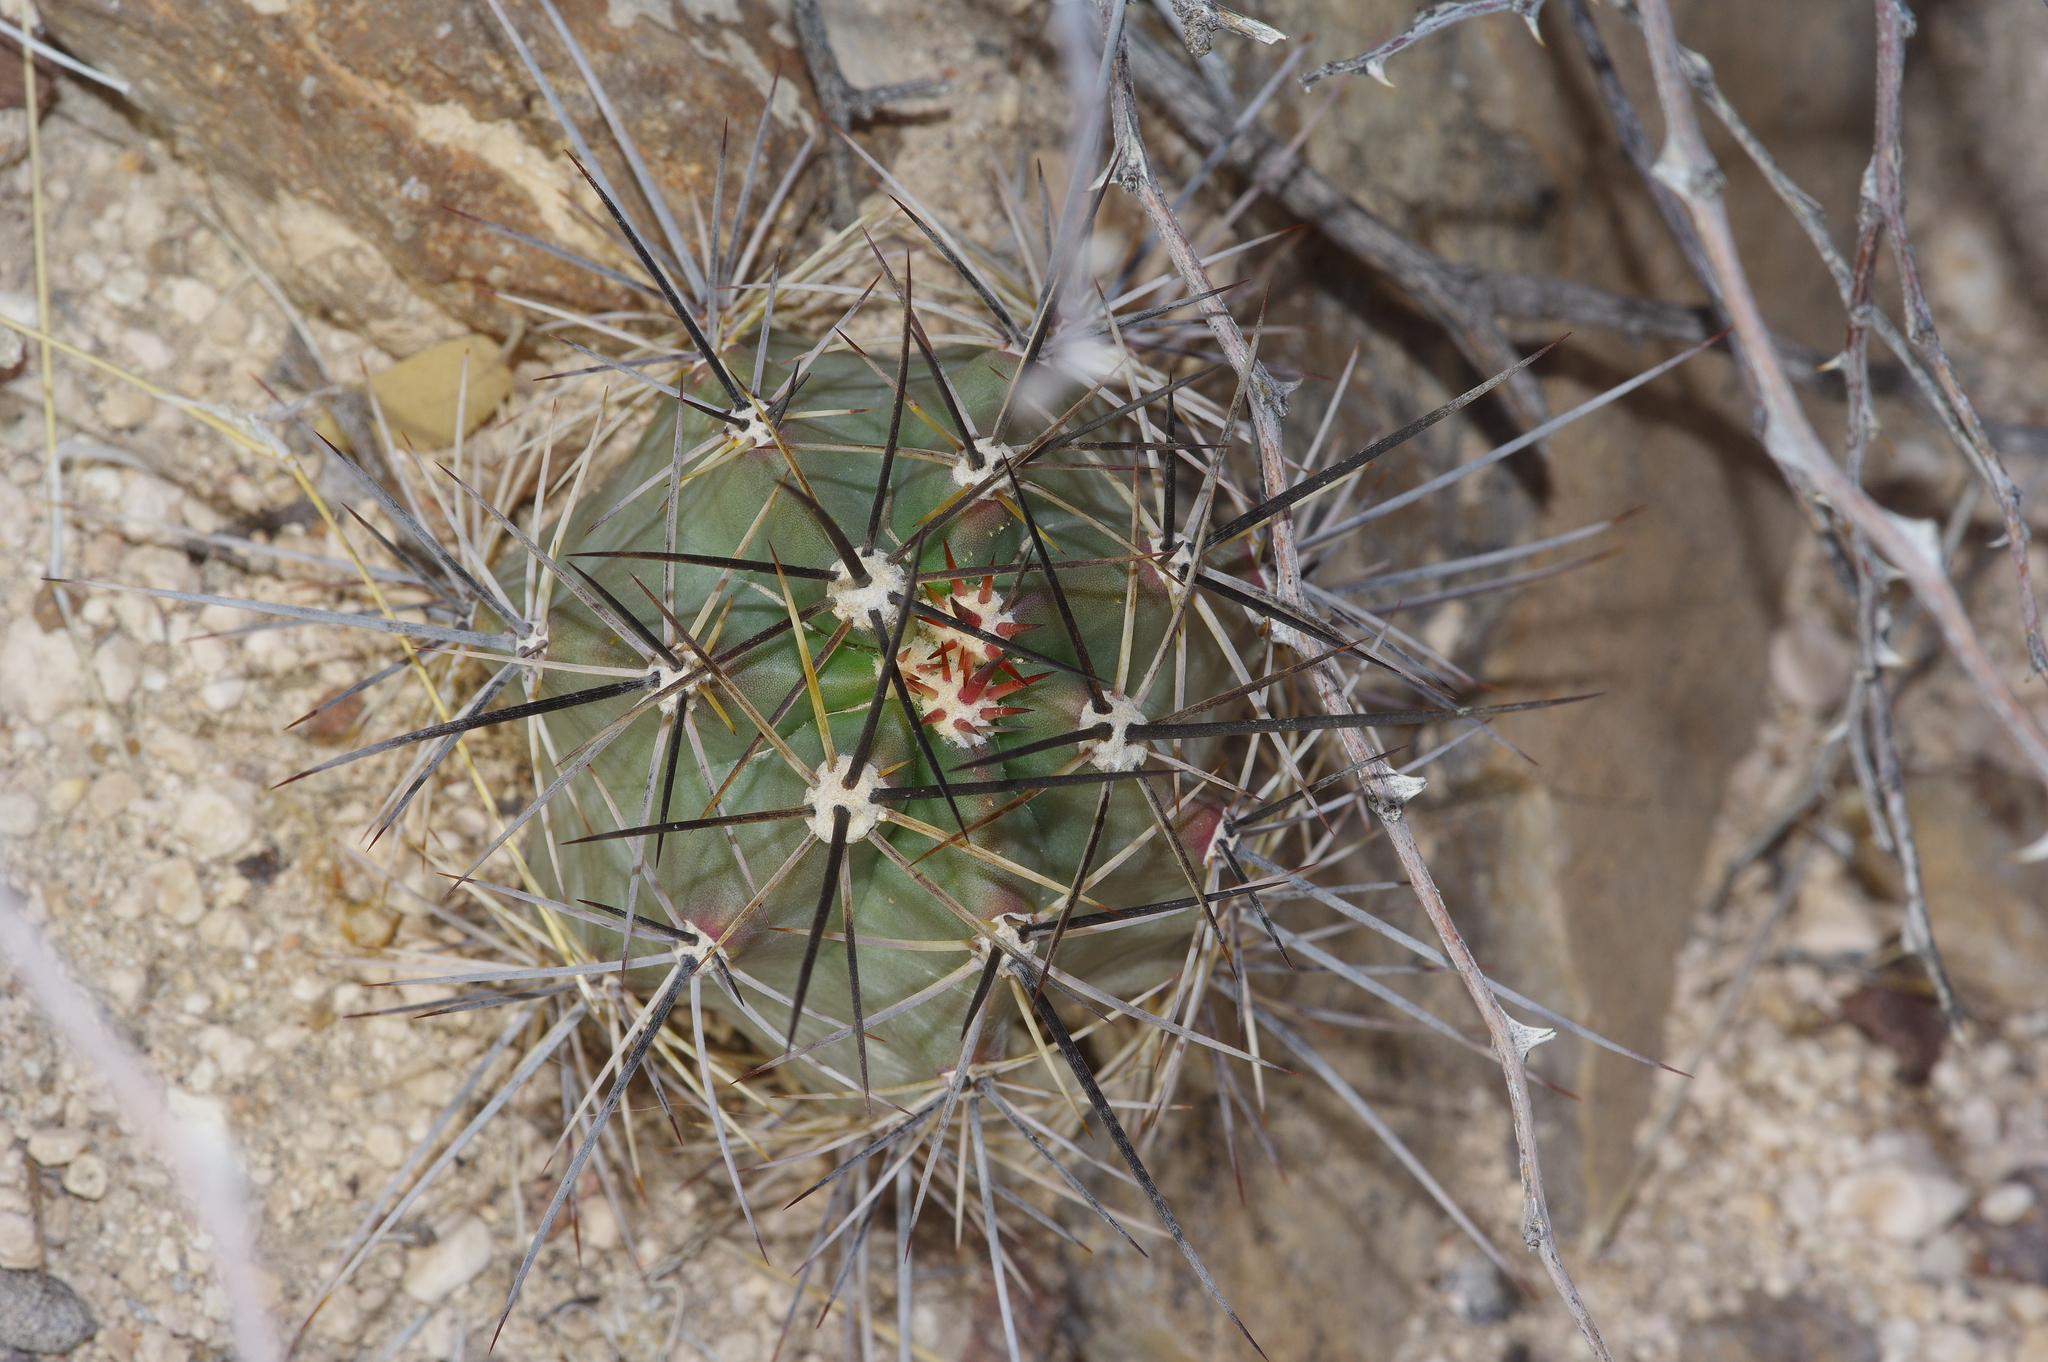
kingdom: Plantae
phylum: Tracheophyta
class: Magnoliopsida
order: Caryophyllales
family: Cactaceae
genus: Echinocereus
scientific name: Echinocereus coccineus
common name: Scarlet hedgehog cactus
